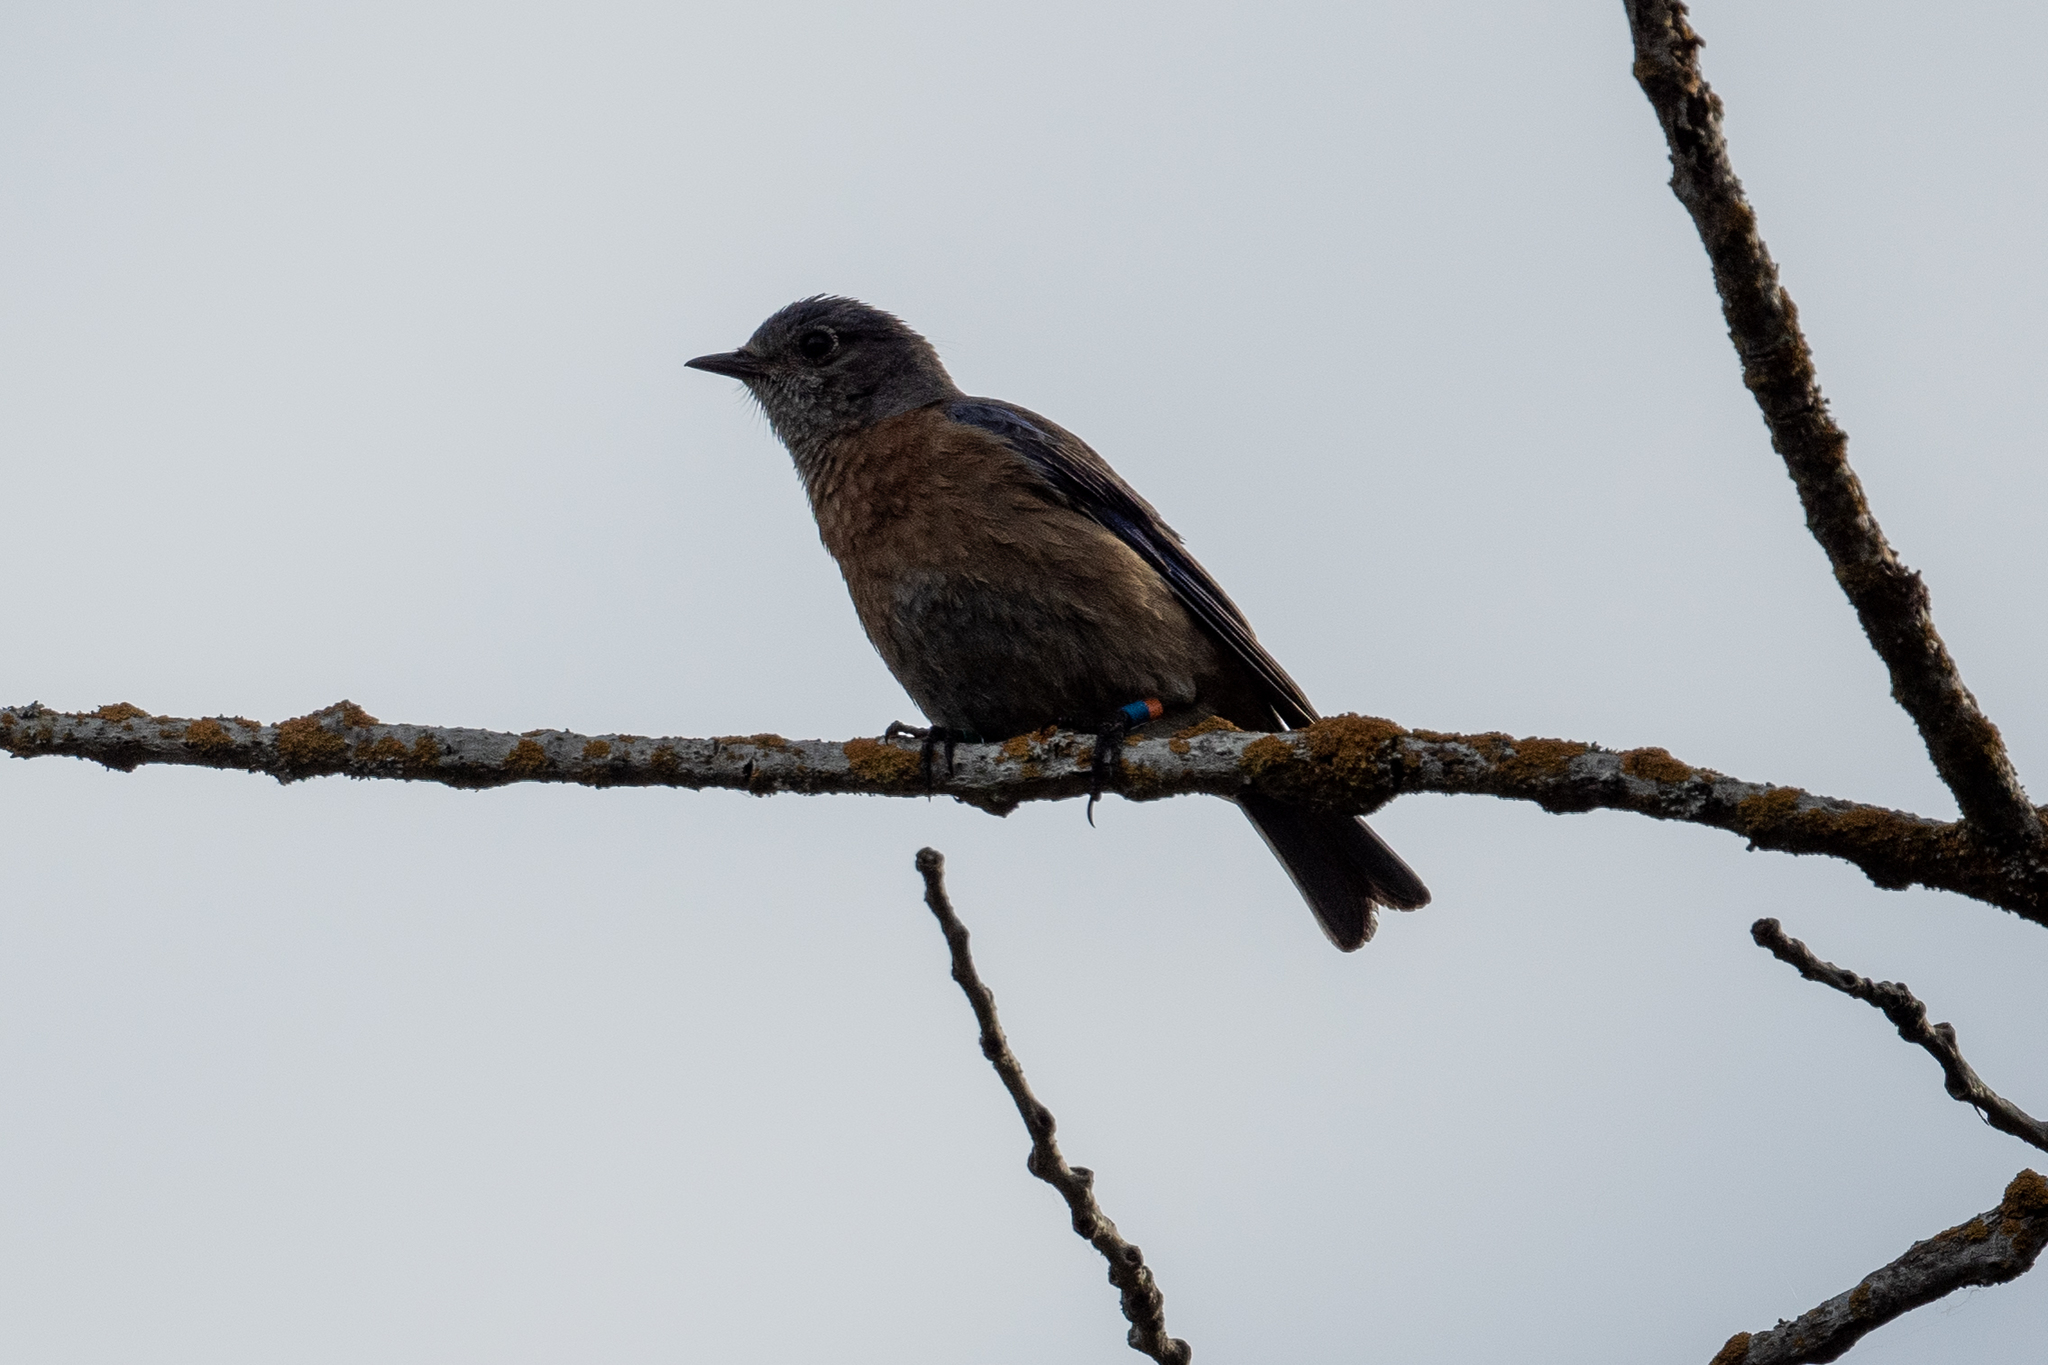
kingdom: Animalia
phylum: Chordata
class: Aves
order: Passeriformes
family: Turdidae
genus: Sialia
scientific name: Sialia mexicana
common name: Western bluebird
